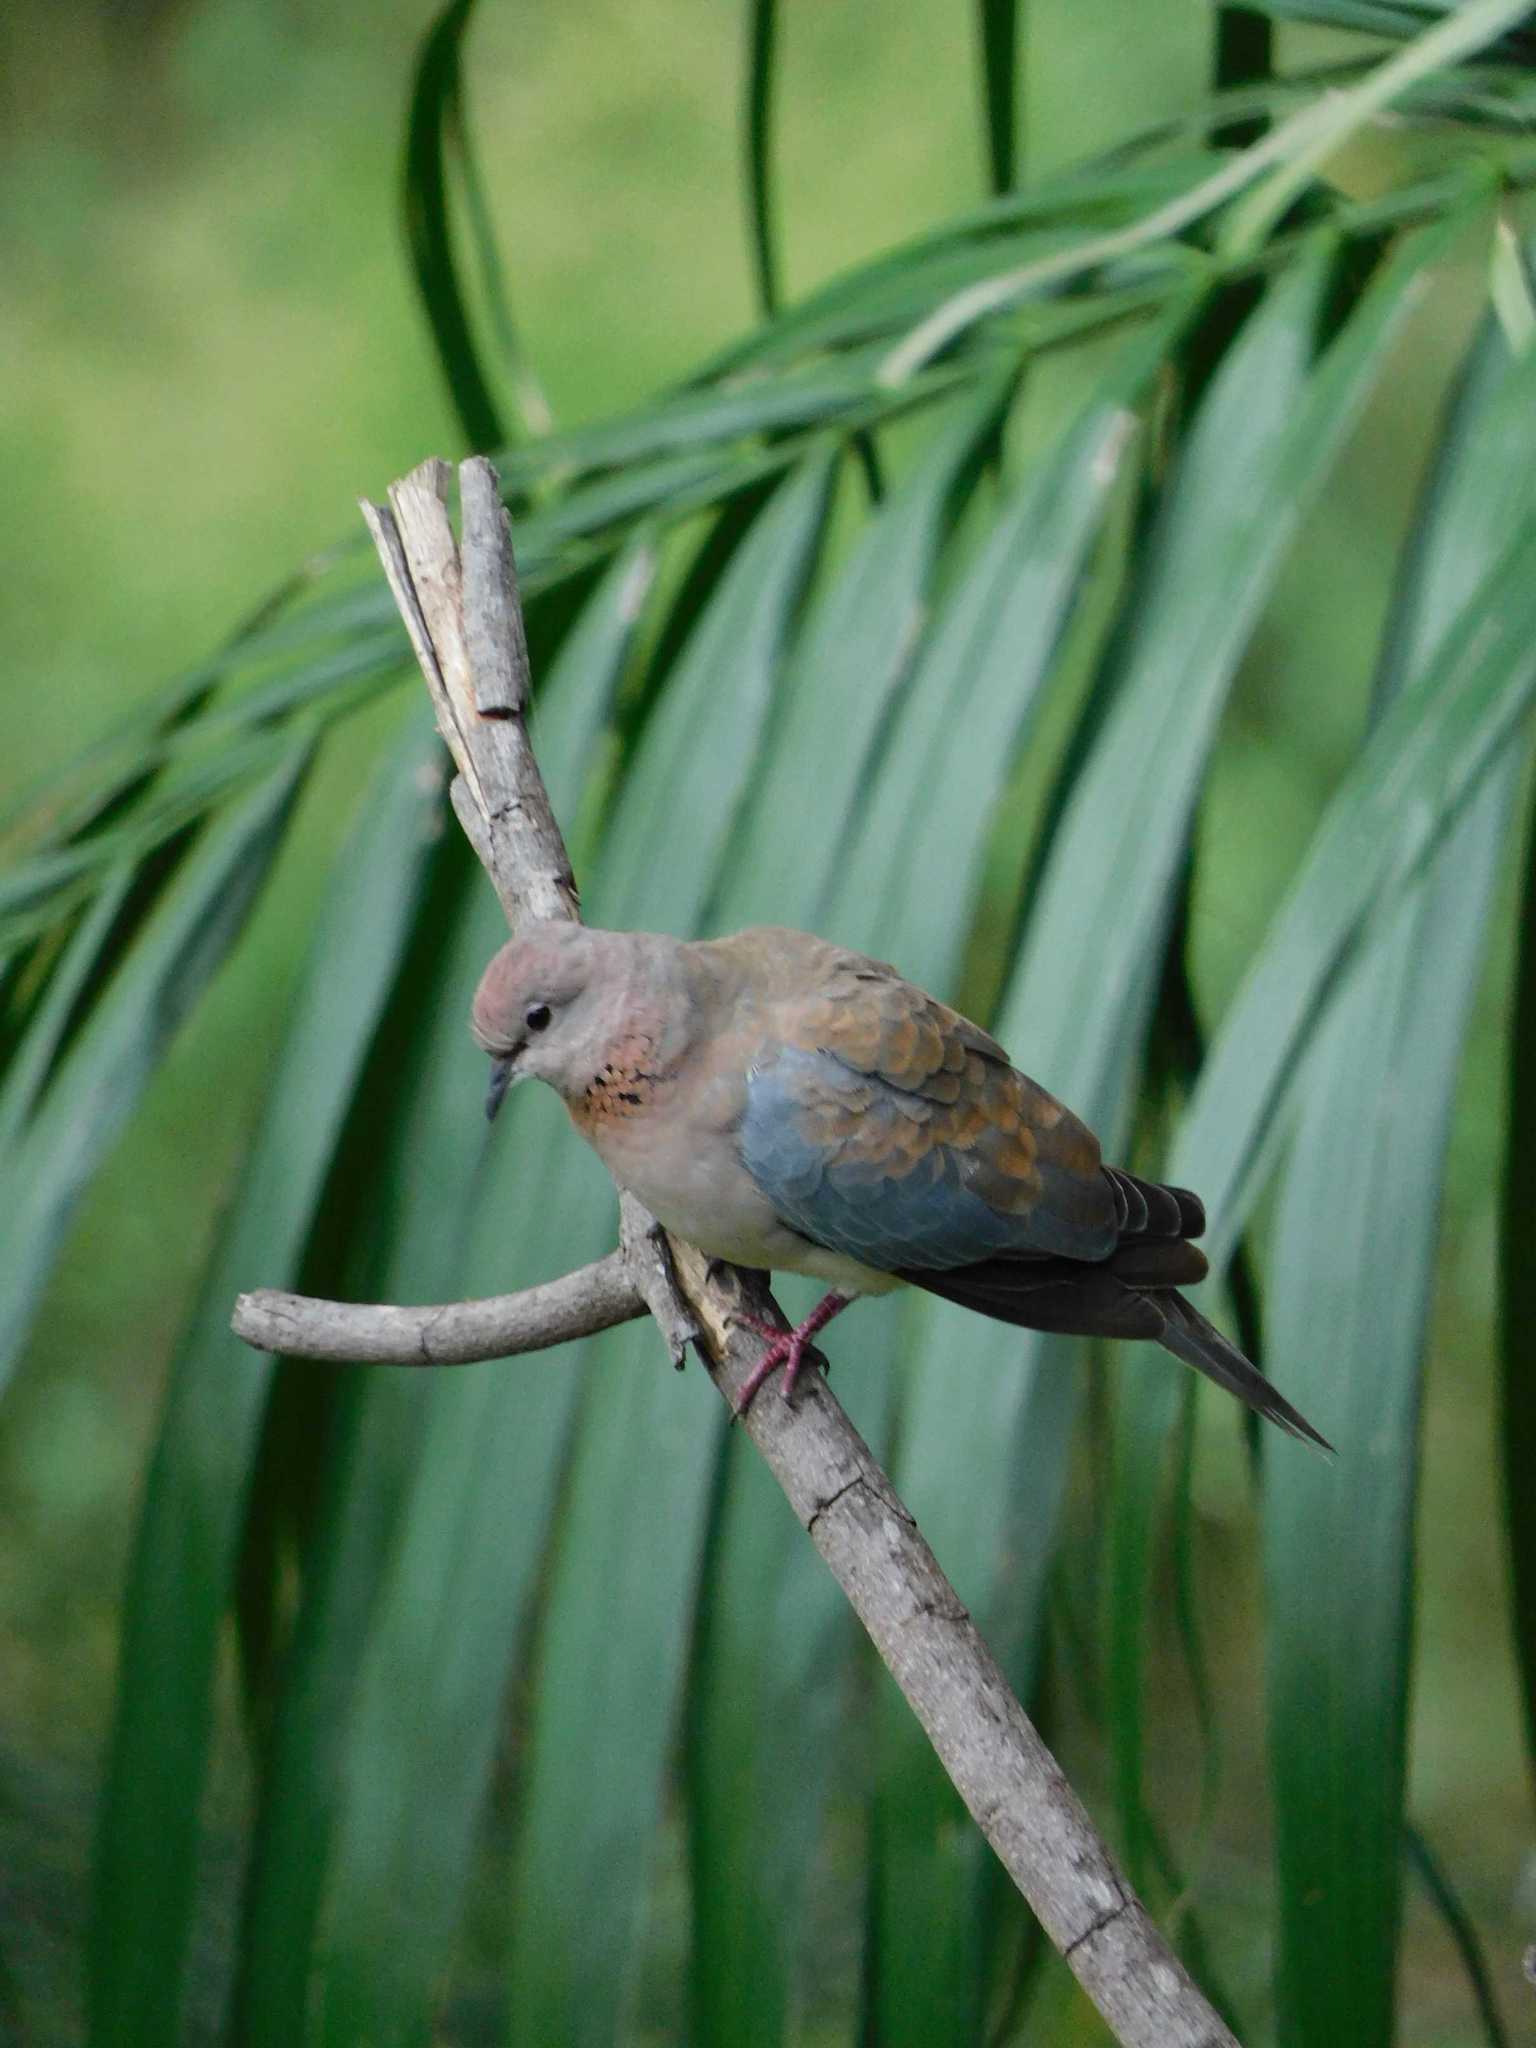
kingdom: Animalia
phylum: Chordata
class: Aves
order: Columbiformes
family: Columbidae
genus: Spilopelia
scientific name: Spilopelia senegalensis
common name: Laughing dove
